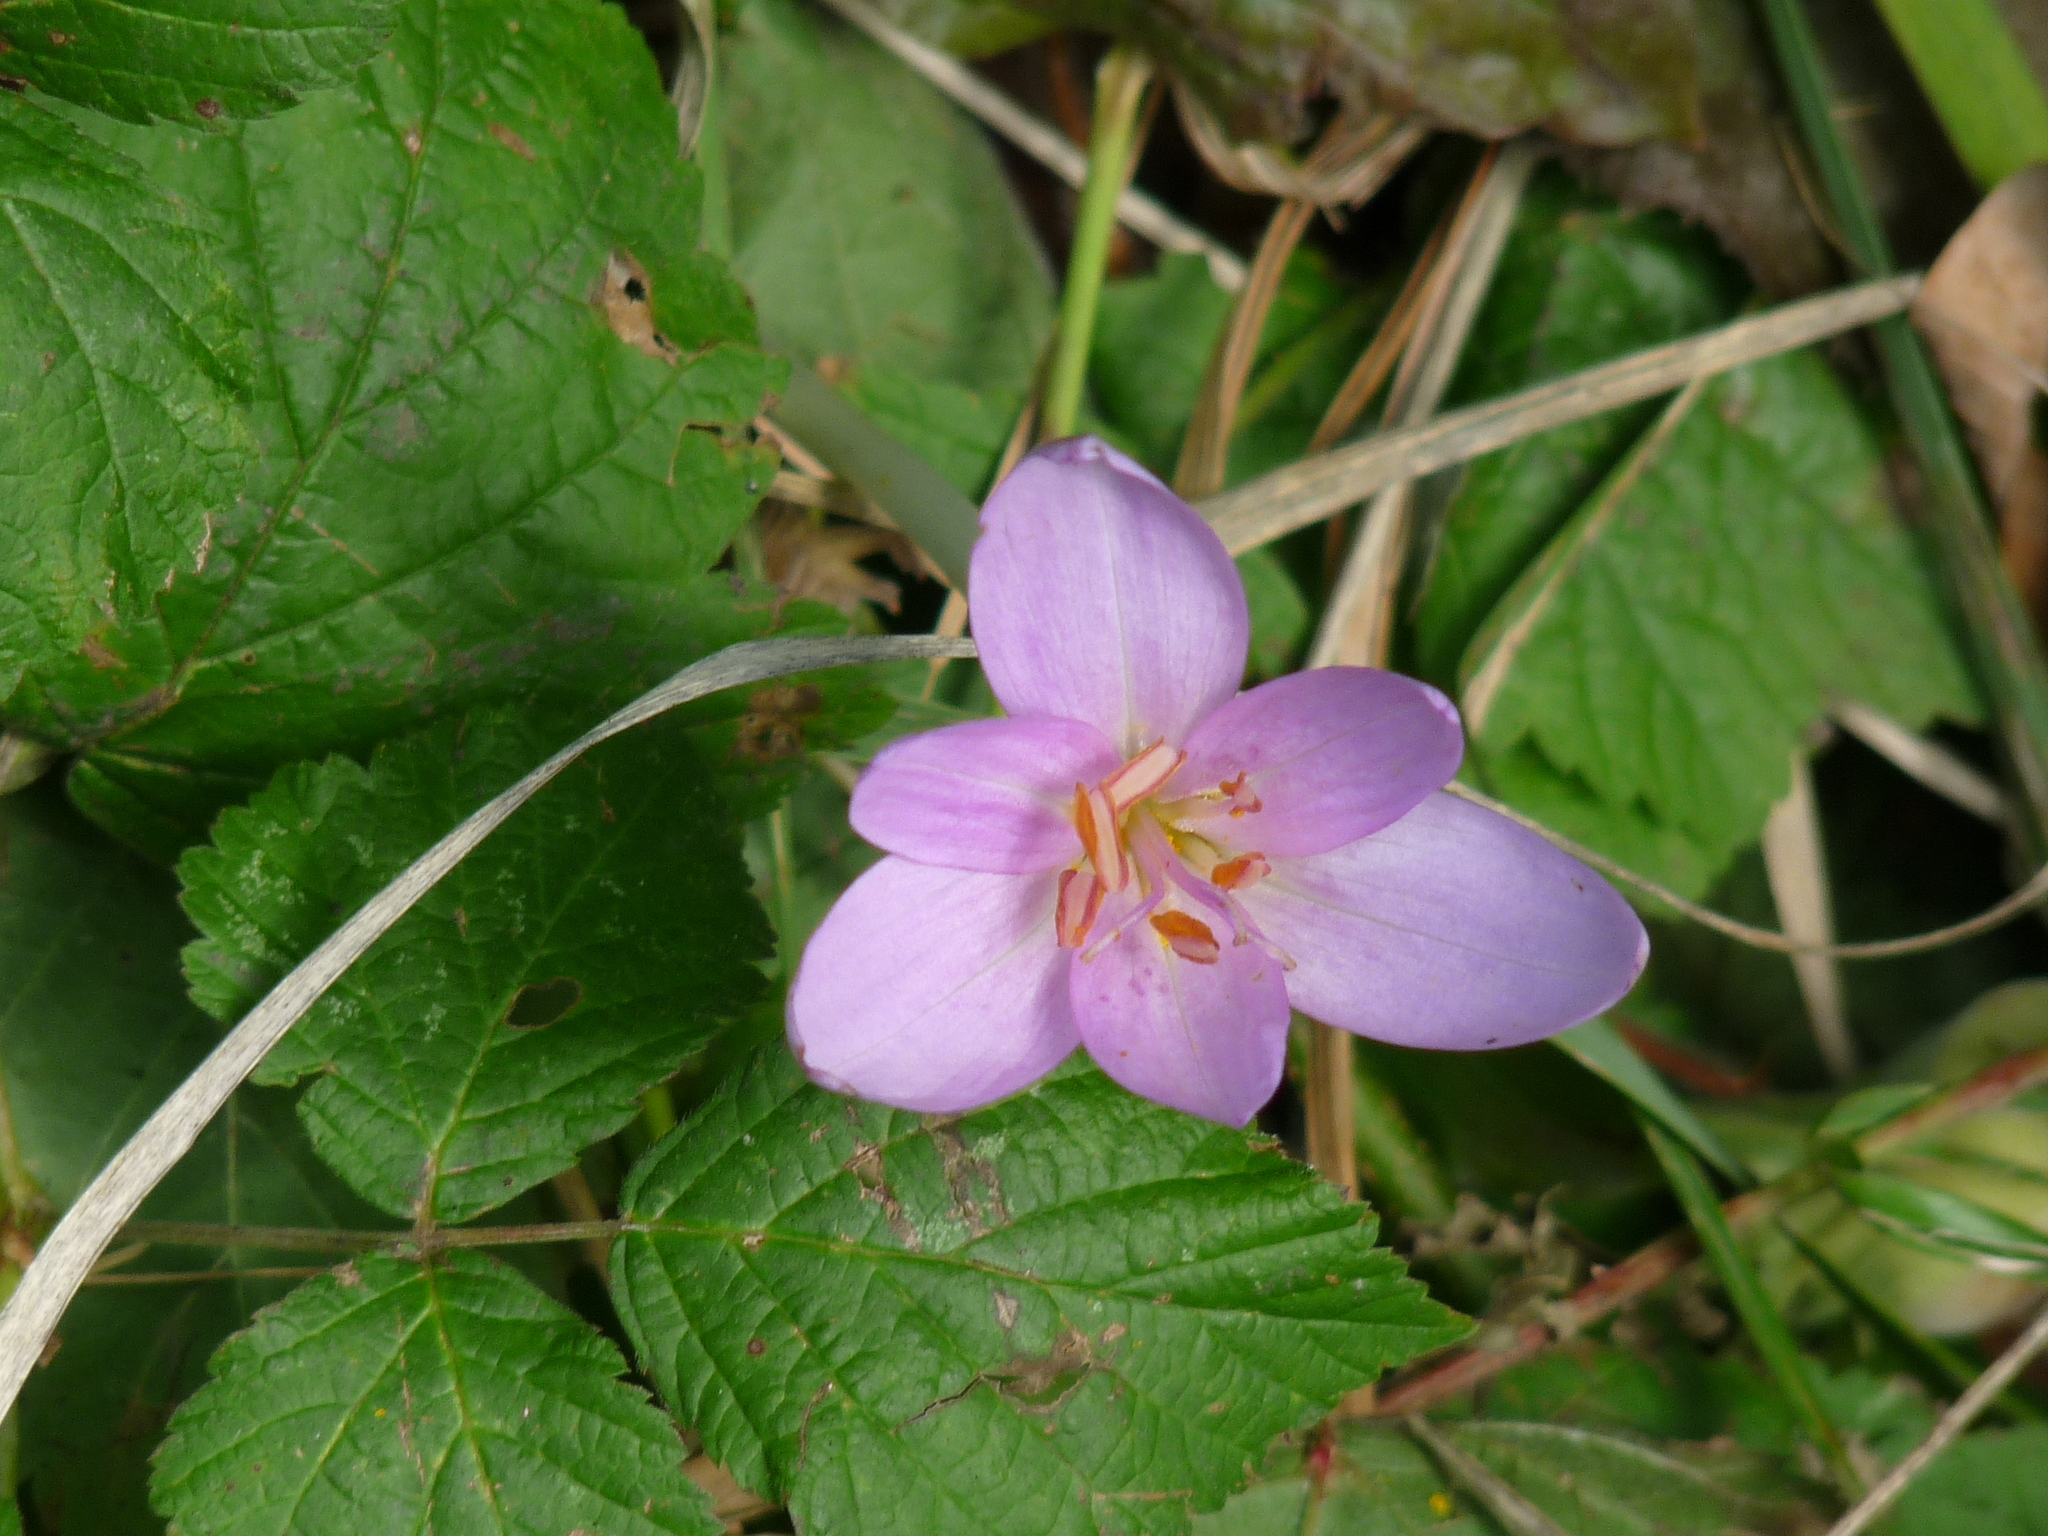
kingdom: Plantae
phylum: Tracheophyta
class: Liliopsida
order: Liliales
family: Colchicaceae
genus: Colchicum
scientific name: Colchicum autumnale
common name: Autumn crocus
